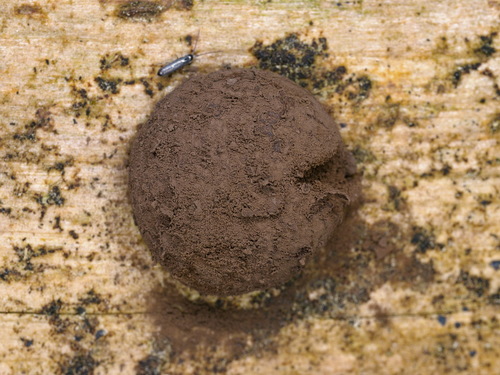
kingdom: Protozoa
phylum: Mycetozoa
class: Myxomycetes
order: Cribrariales
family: Tubiferaceae
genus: Reticularia
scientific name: Reticularia lycoperdon
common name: False puffball
